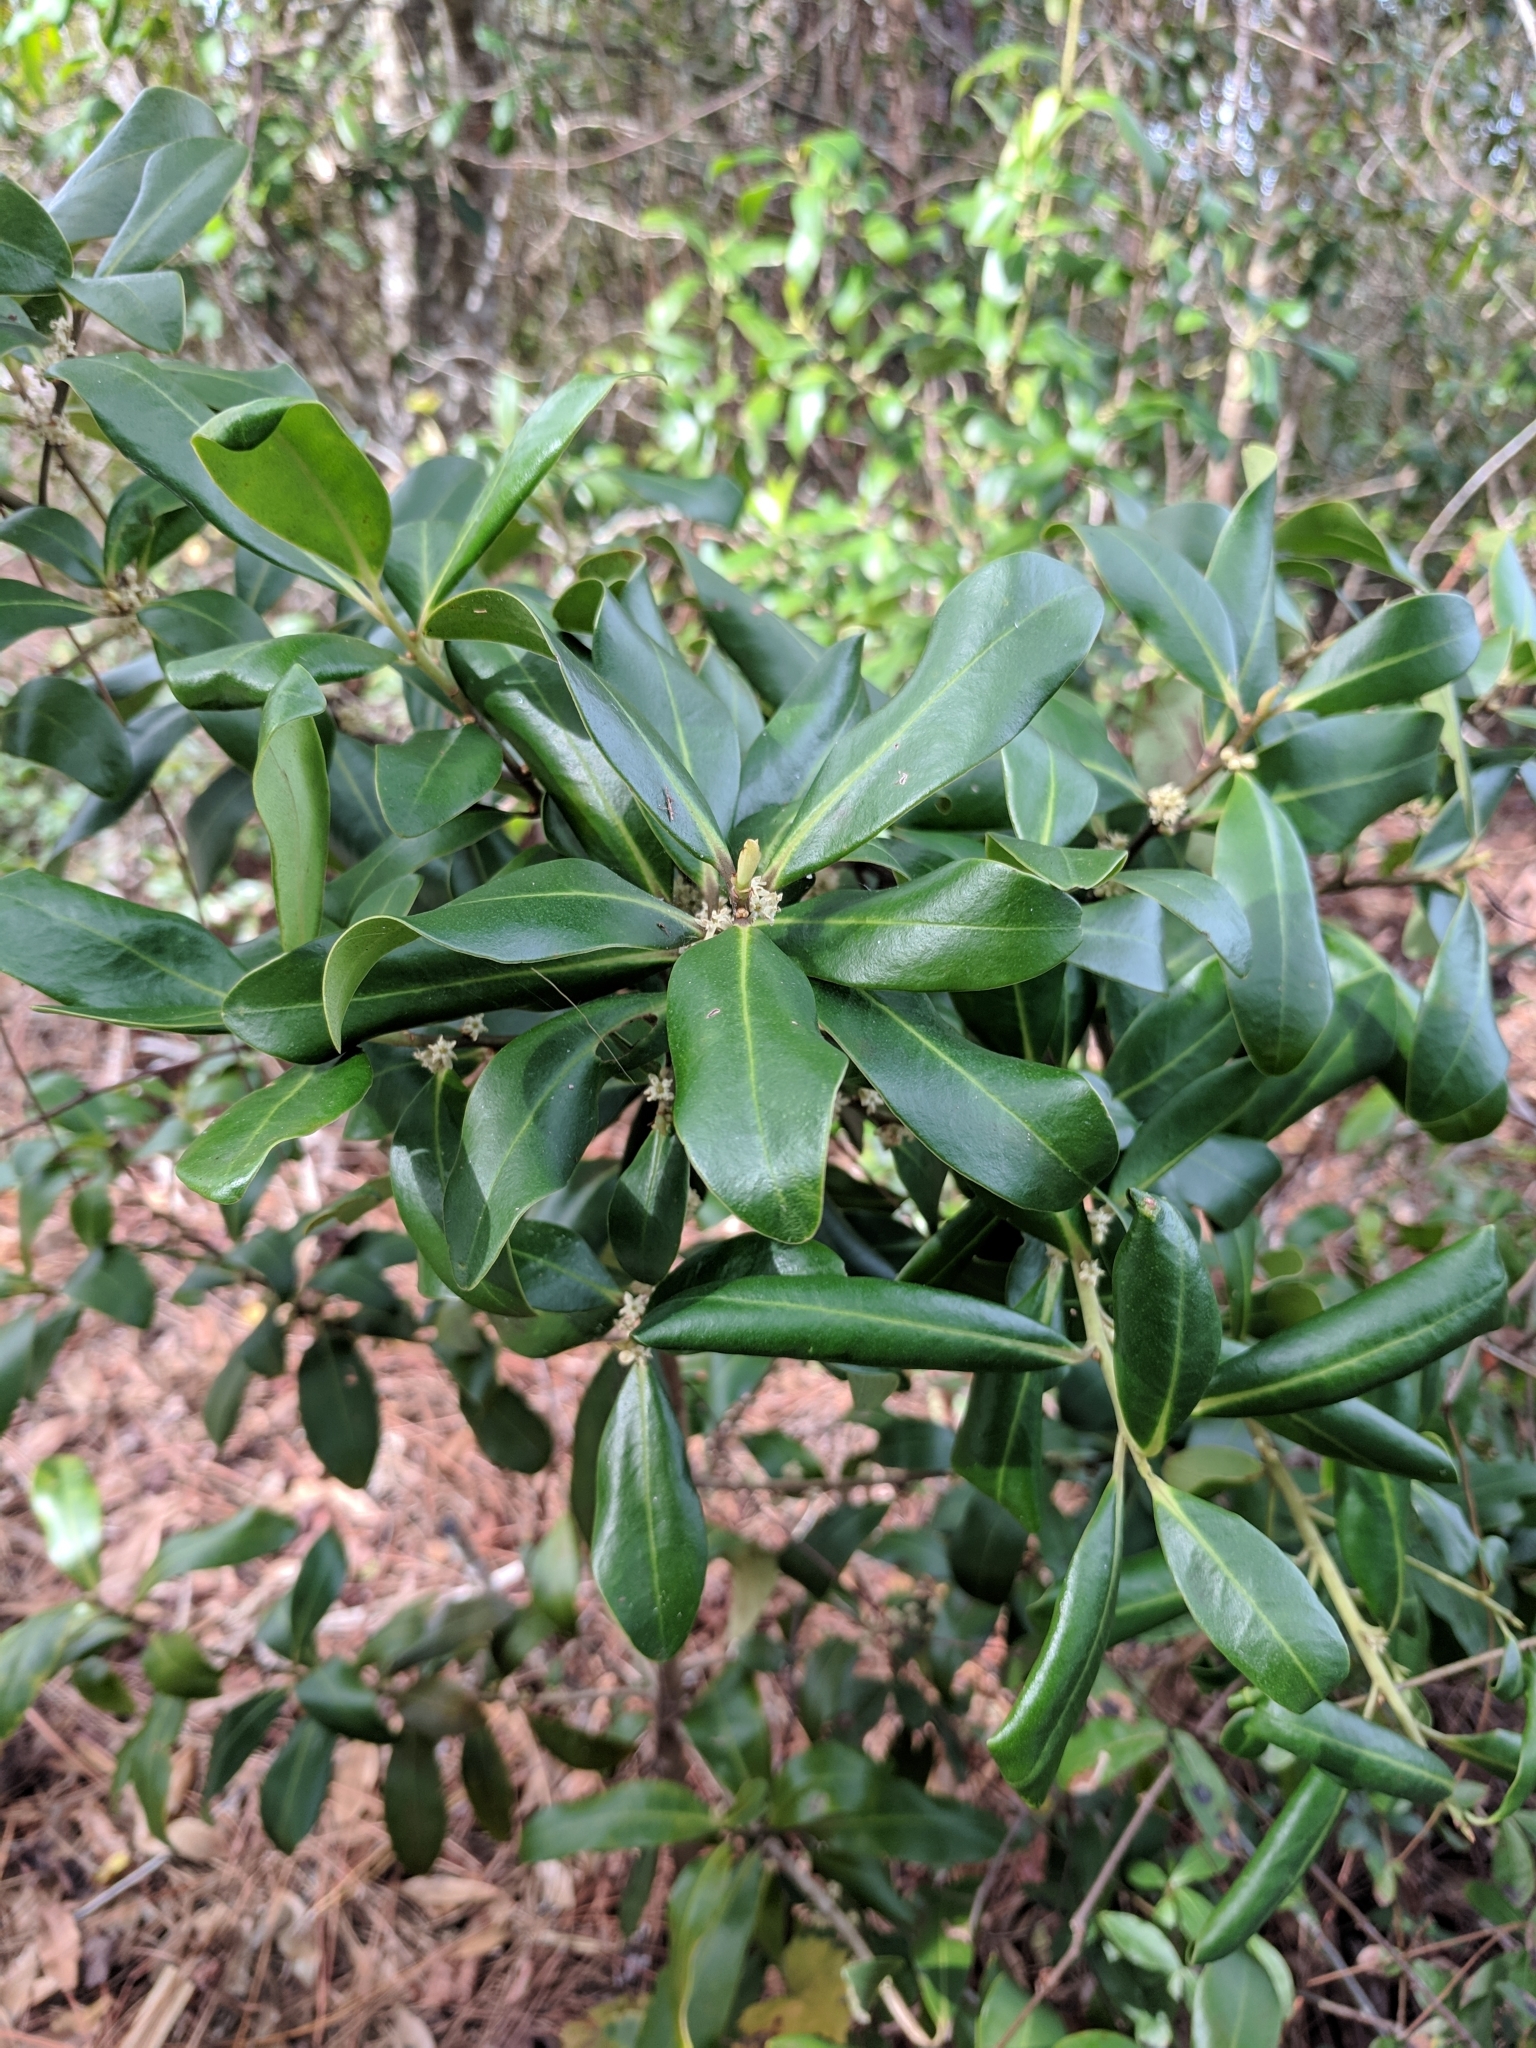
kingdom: Plantae
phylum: Tracheophyta
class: Magnoliopsida
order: Ericales
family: Primulaceae
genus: Myrsine
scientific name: Myrsine floridana
